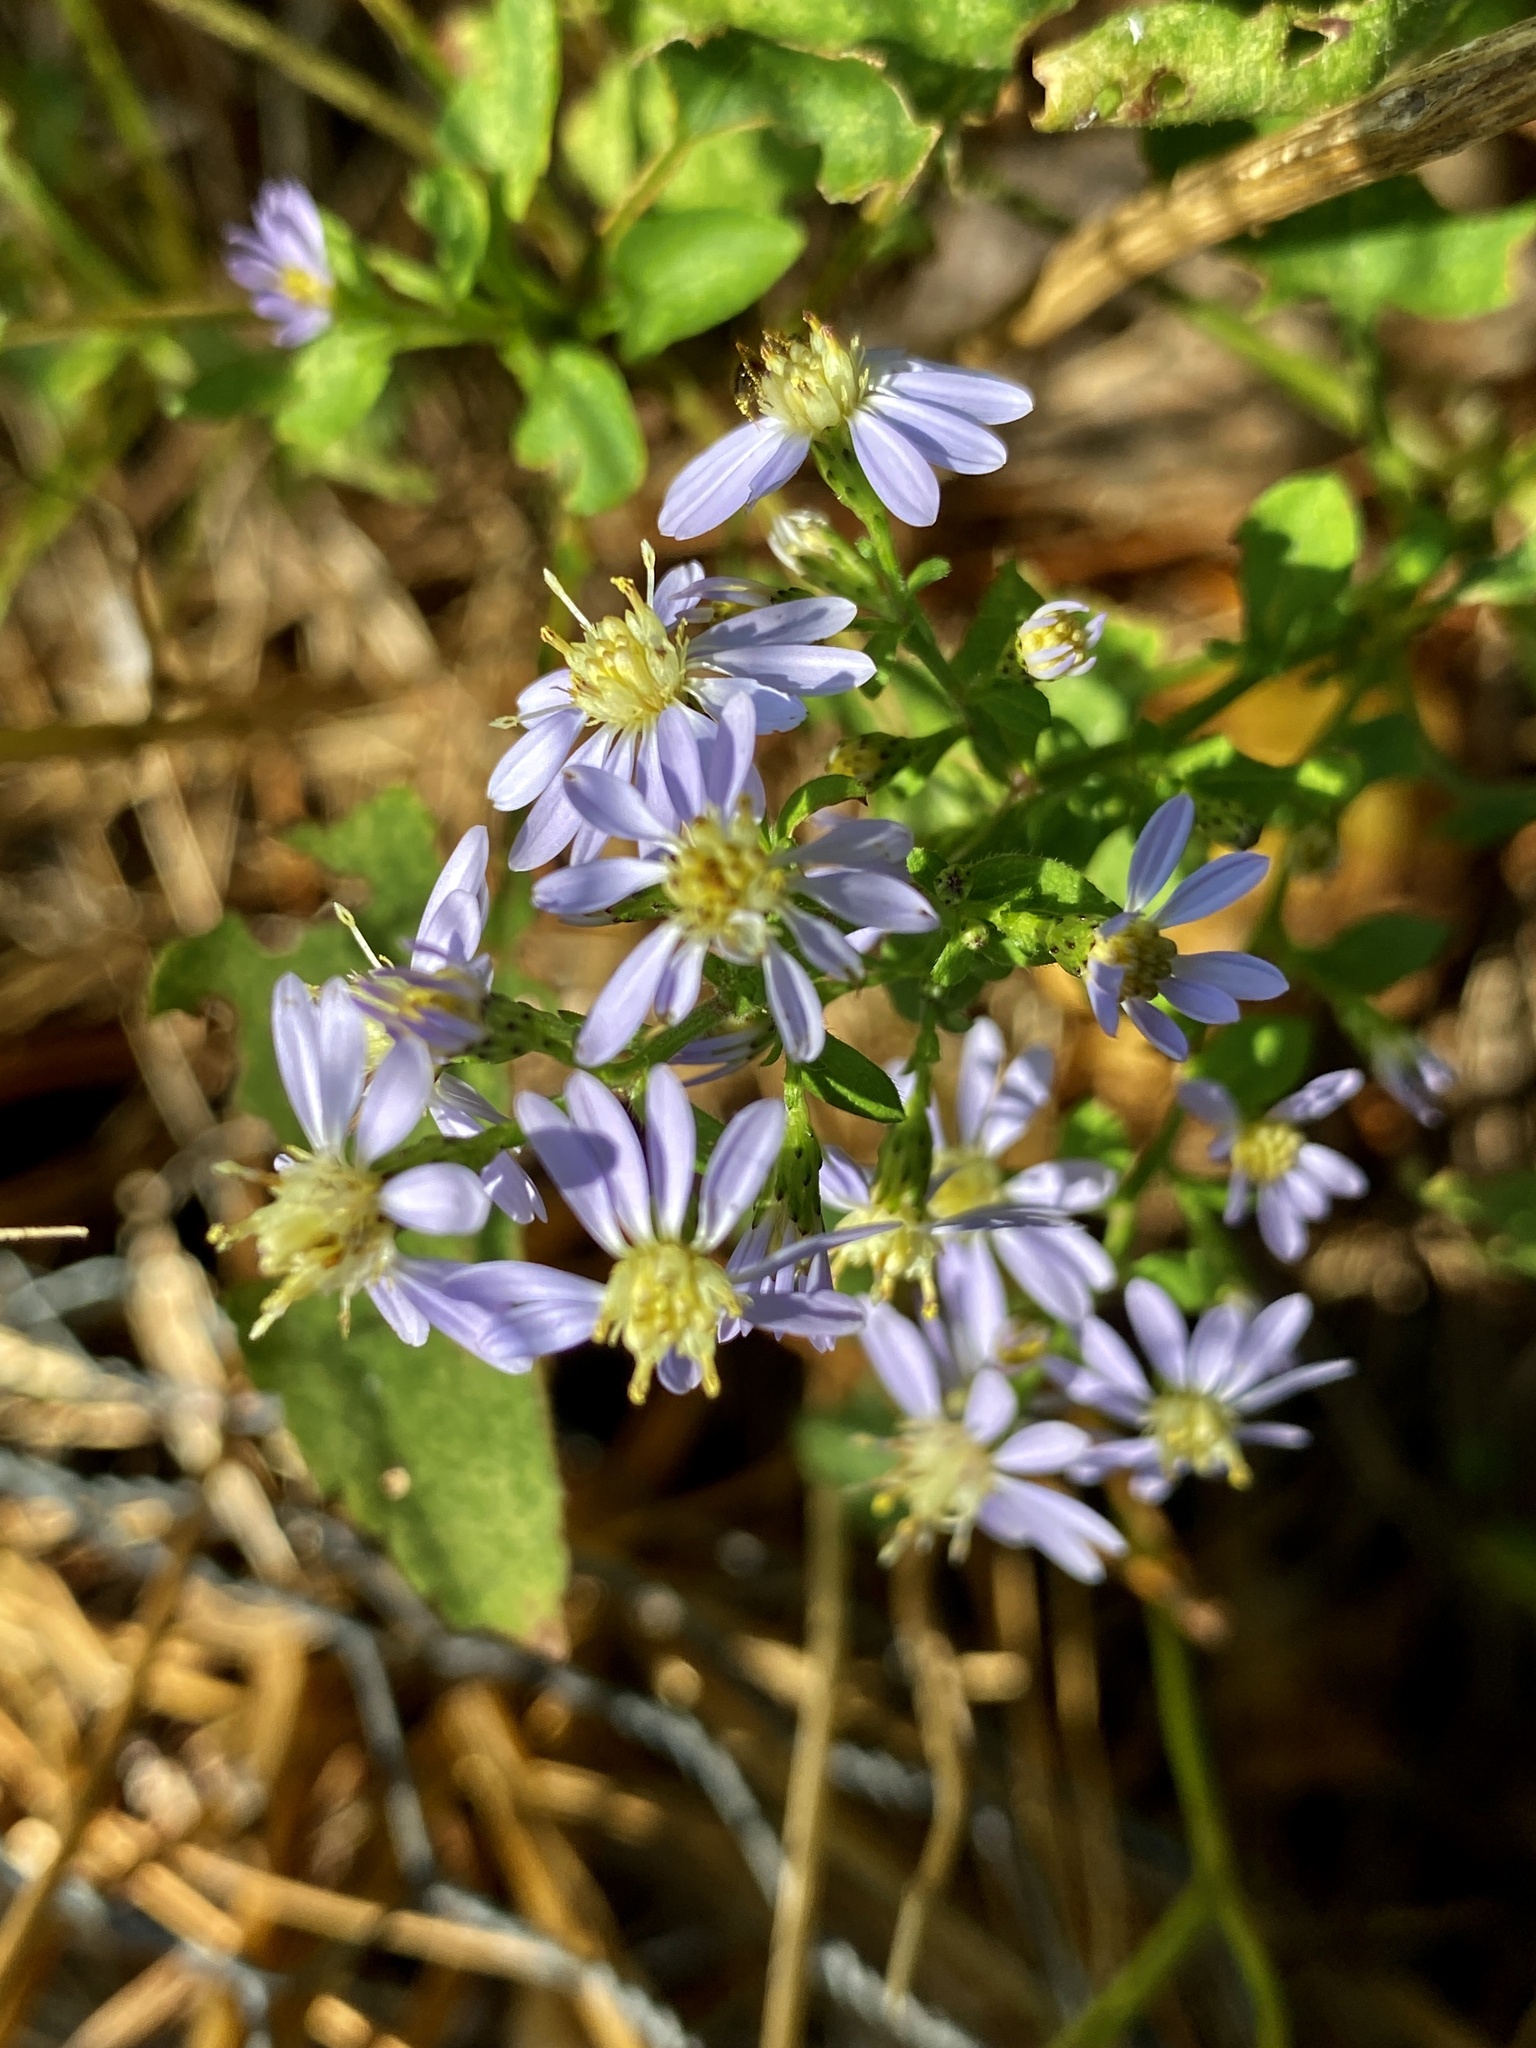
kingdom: Plantae
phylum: Tracheophyta
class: Magnoliopsida
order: Asterales
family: Asteraceae
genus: Symphyotrichum
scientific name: Symphyotrichum cordifolium
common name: Beeweed
